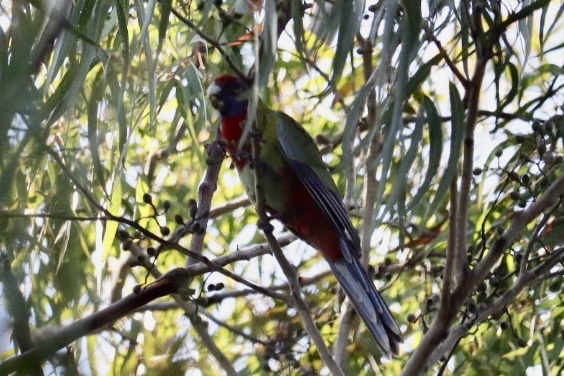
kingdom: Animalia
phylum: Chordata
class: Aves
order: Psittaciformes
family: Psittacidae
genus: Platycercus
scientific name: Platycercus elegans
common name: Crimson rosella
